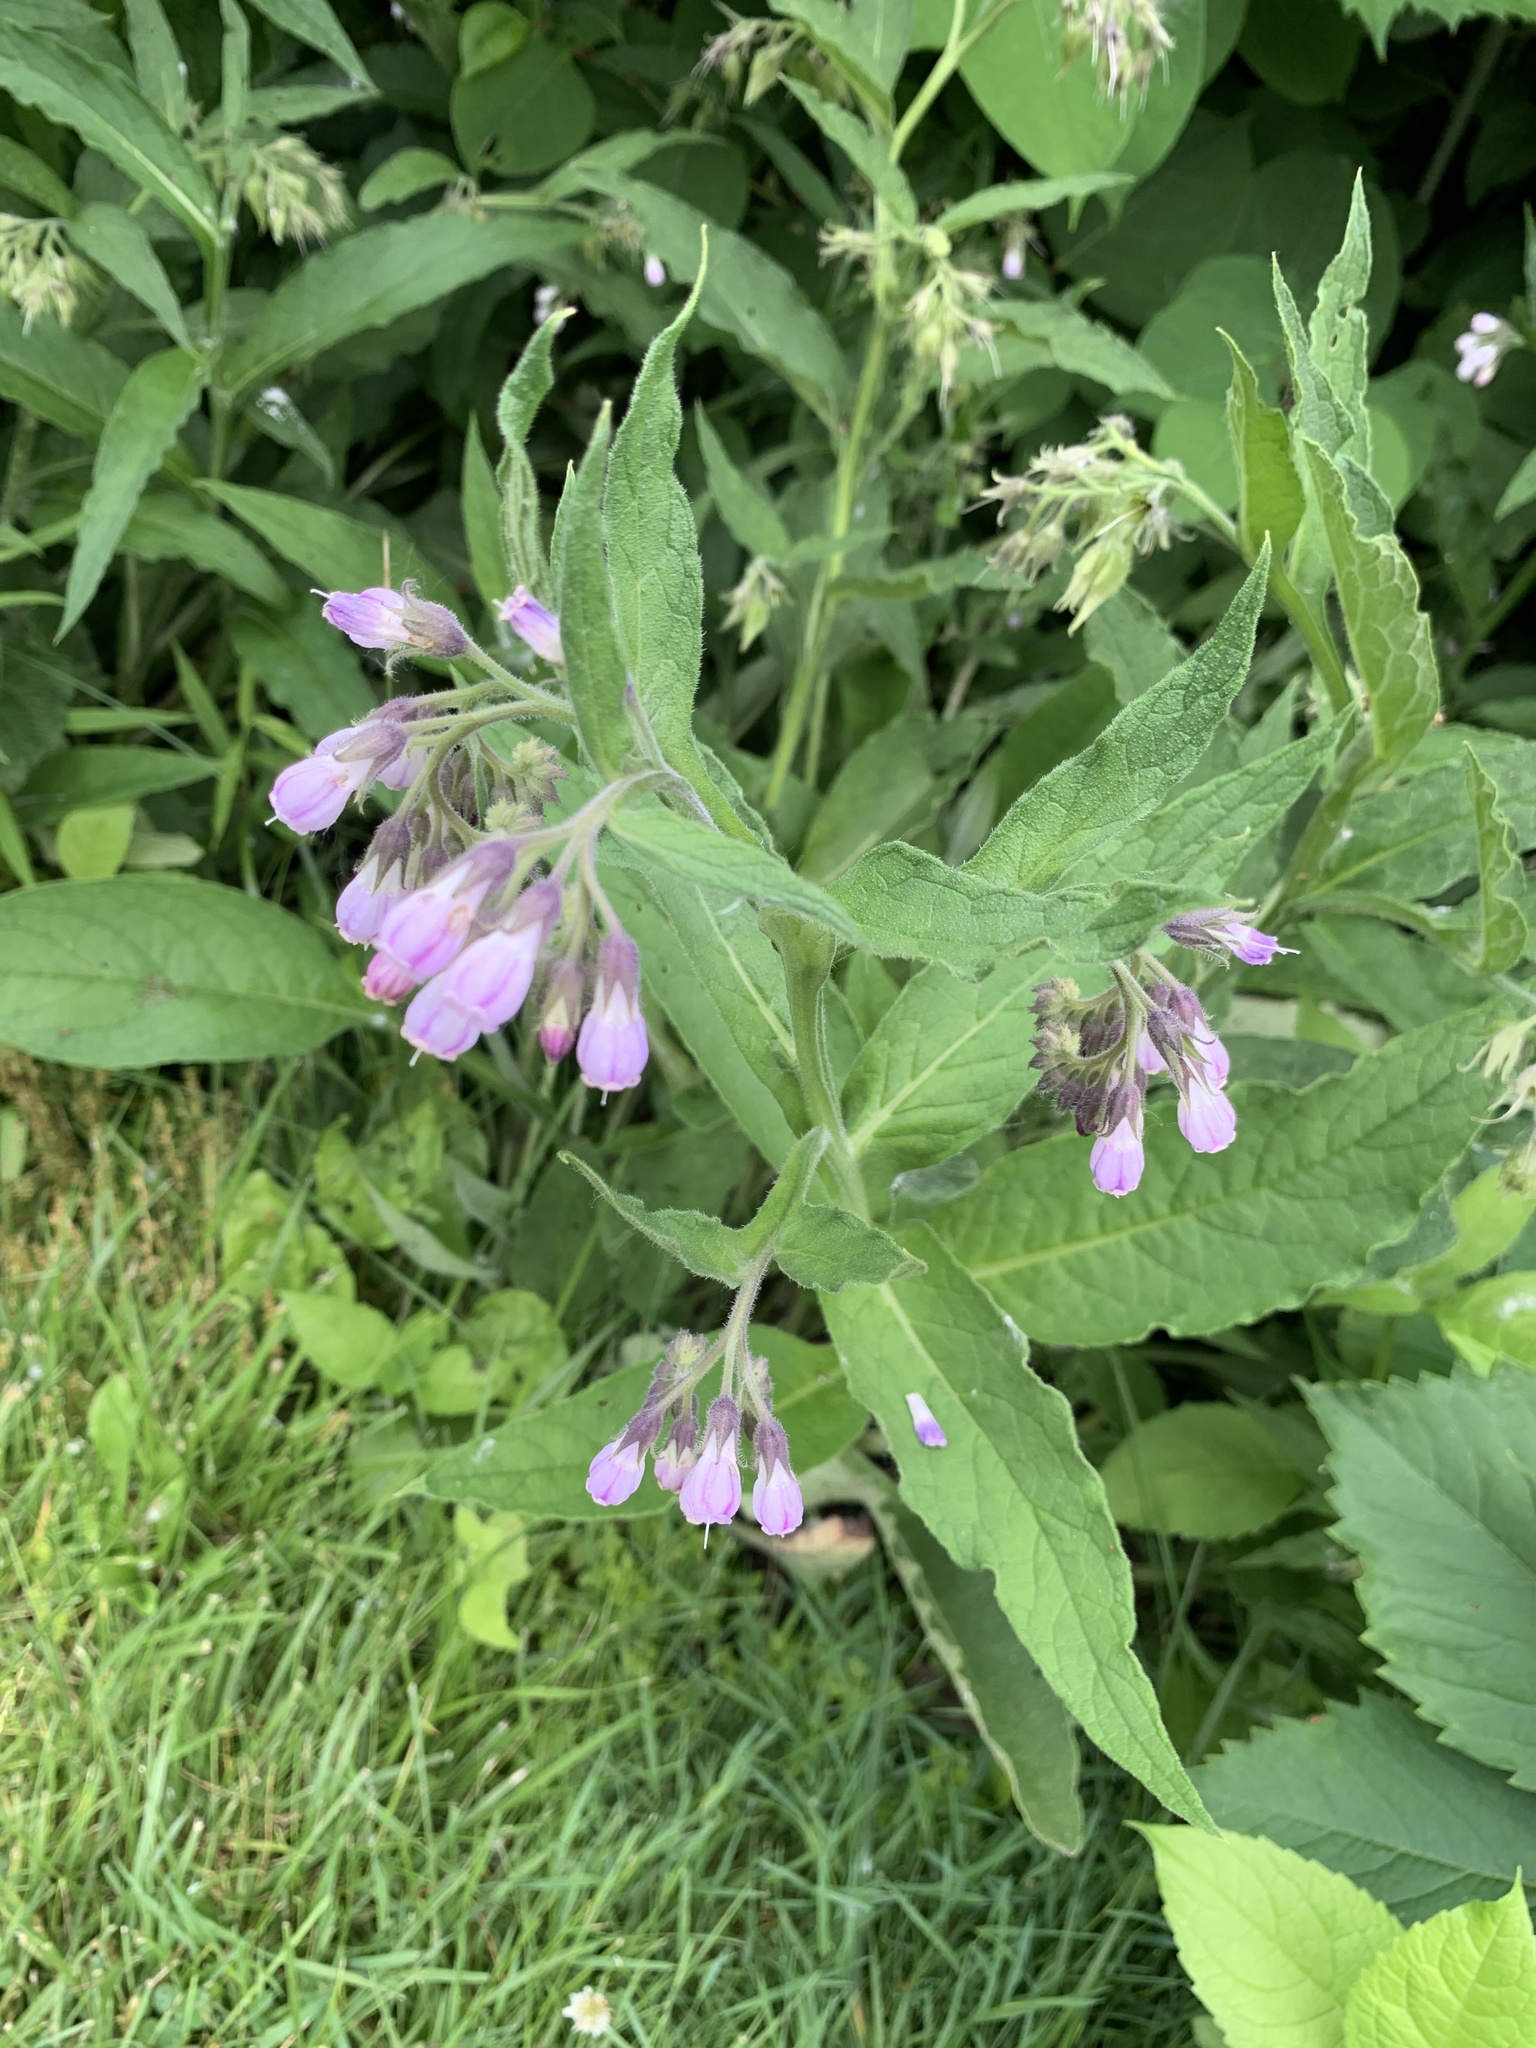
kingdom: Plantae
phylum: Tracheophyta
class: Magnoliopsida
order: Boraginales
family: Boraginaceae
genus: Symphytum
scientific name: Symphytum officinale
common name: Common comfrey
